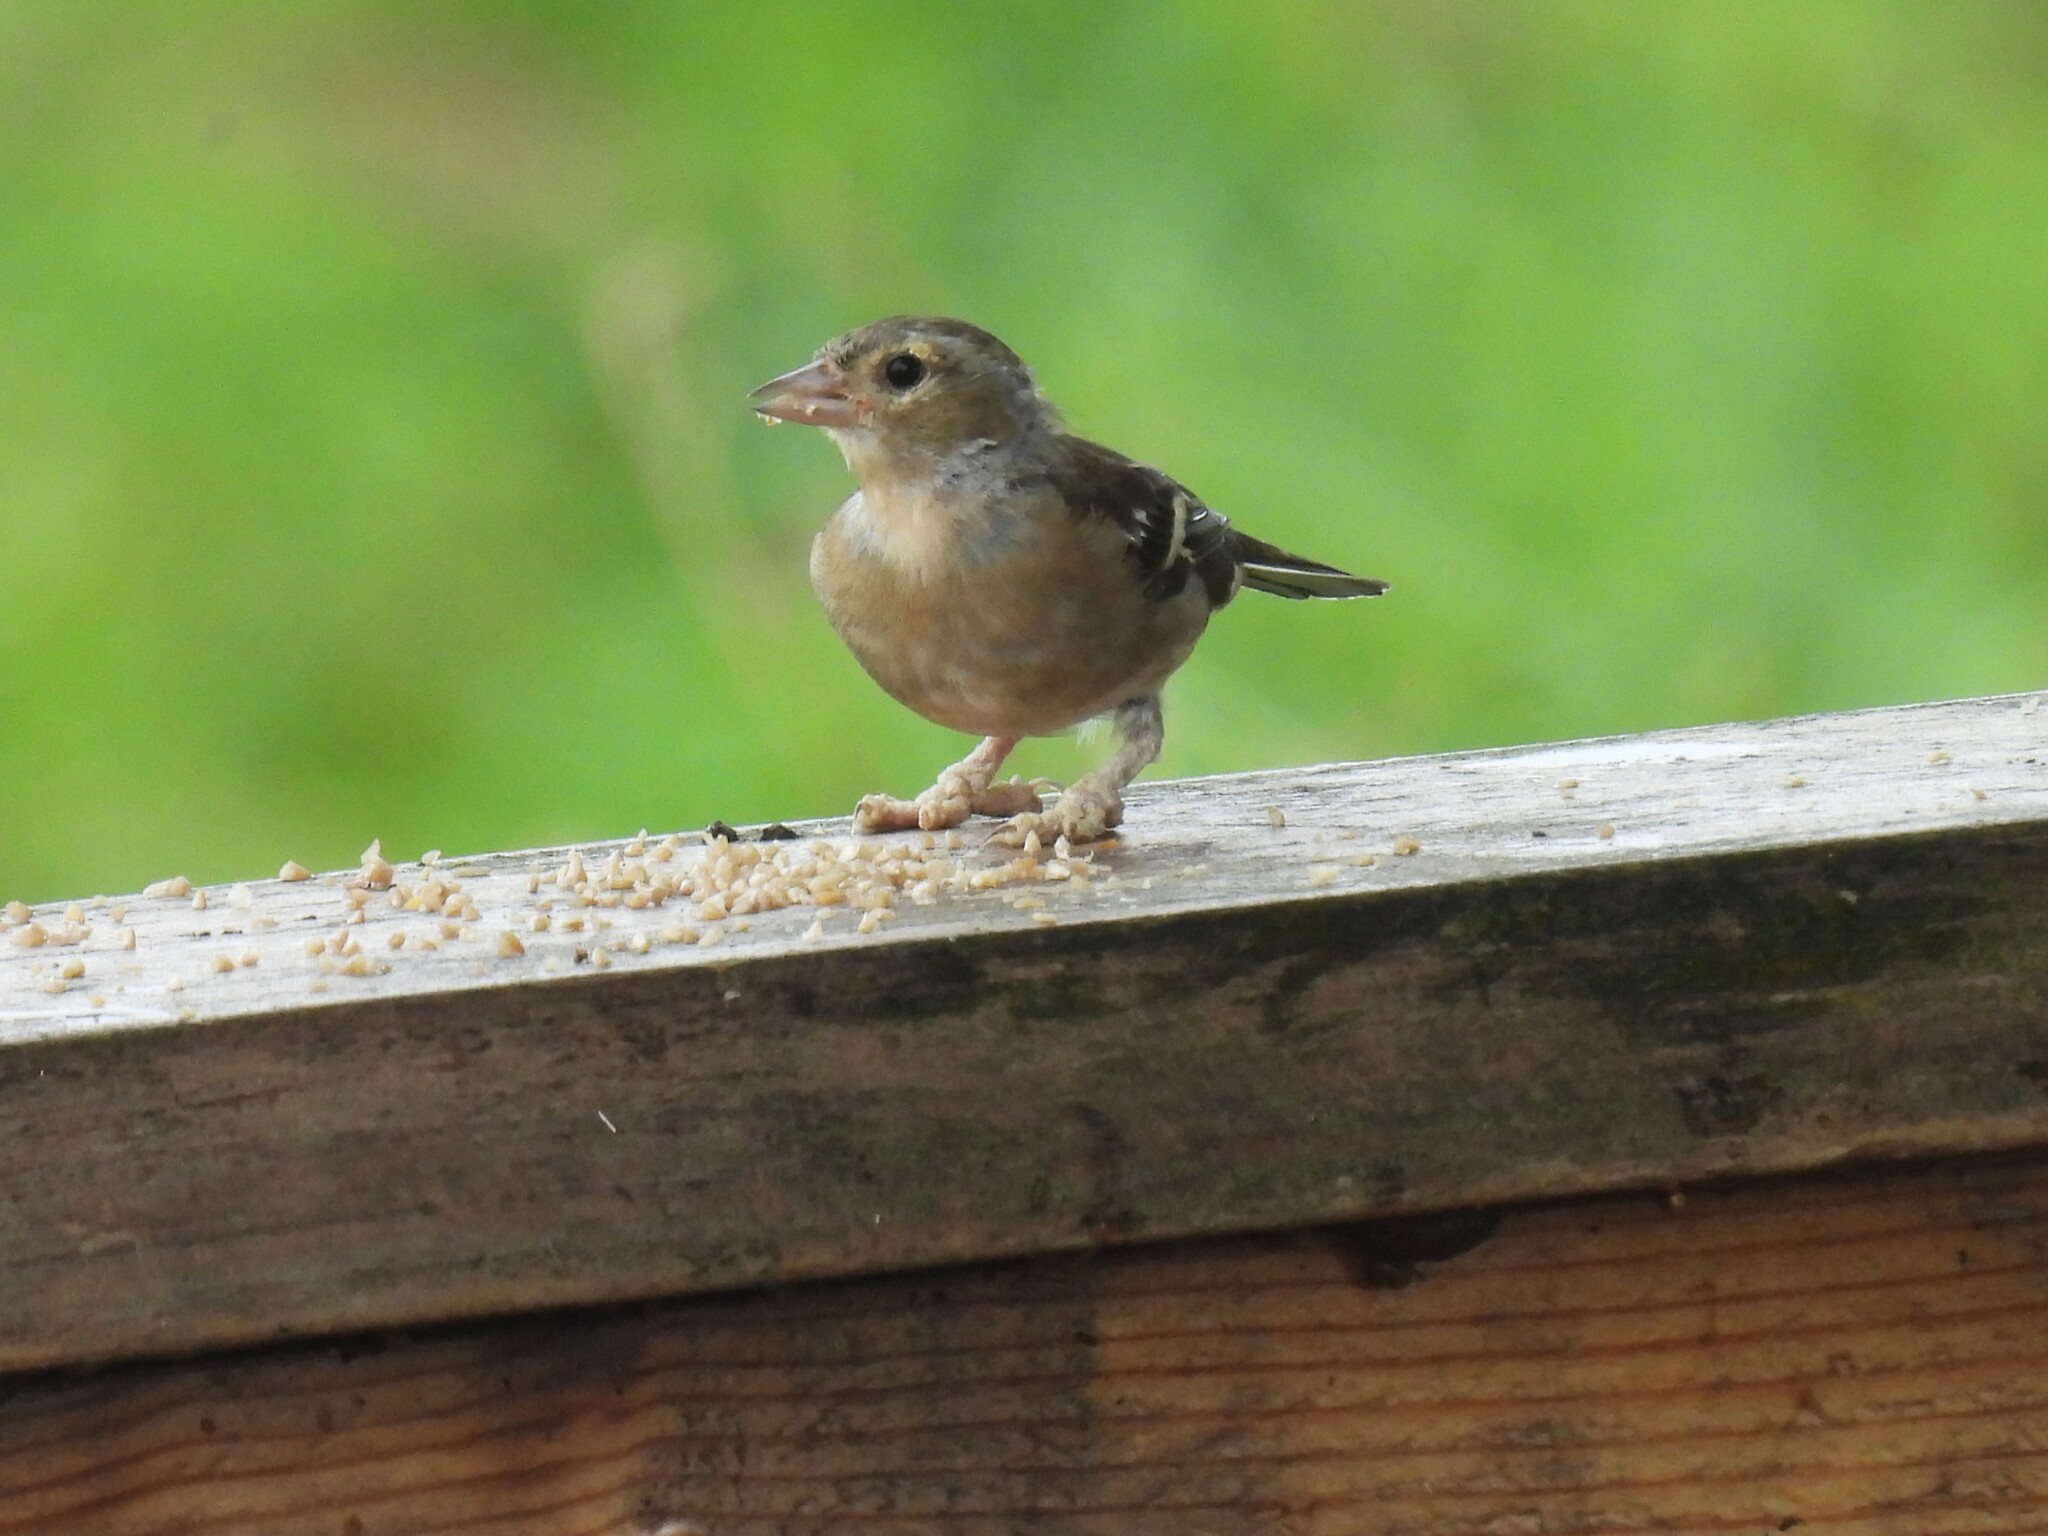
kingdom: Animalia
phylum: Chordata
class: Aves
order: Passeriformes
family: Fringillidae
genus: Fringilla
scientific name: Fringilla coelebs
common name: Common chaffinch
